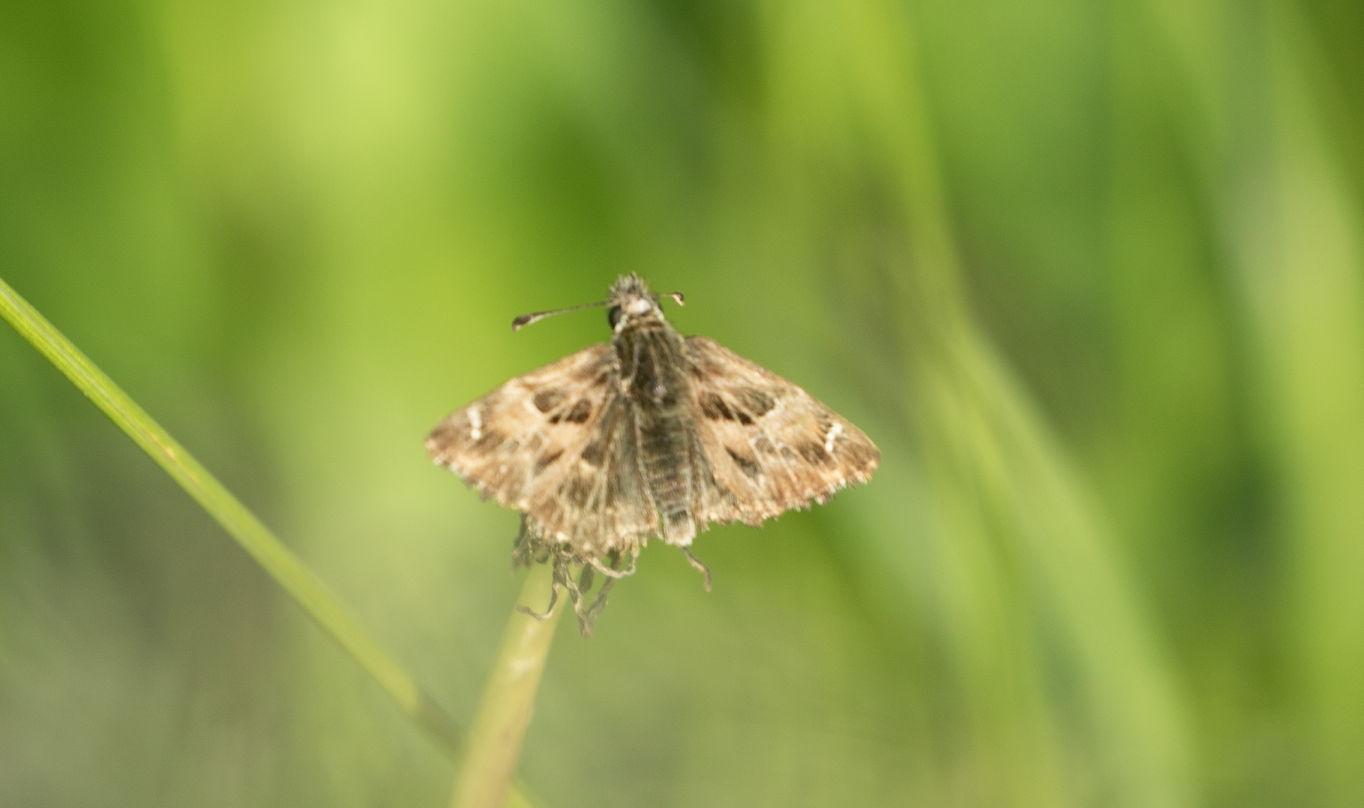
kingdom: Animalia
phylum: Arthropoda
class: Insecta
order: Lepidoptera
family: Hesperiidae
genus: Carcharodus
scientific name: Carcharodus alceae
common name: Mallow skipper
